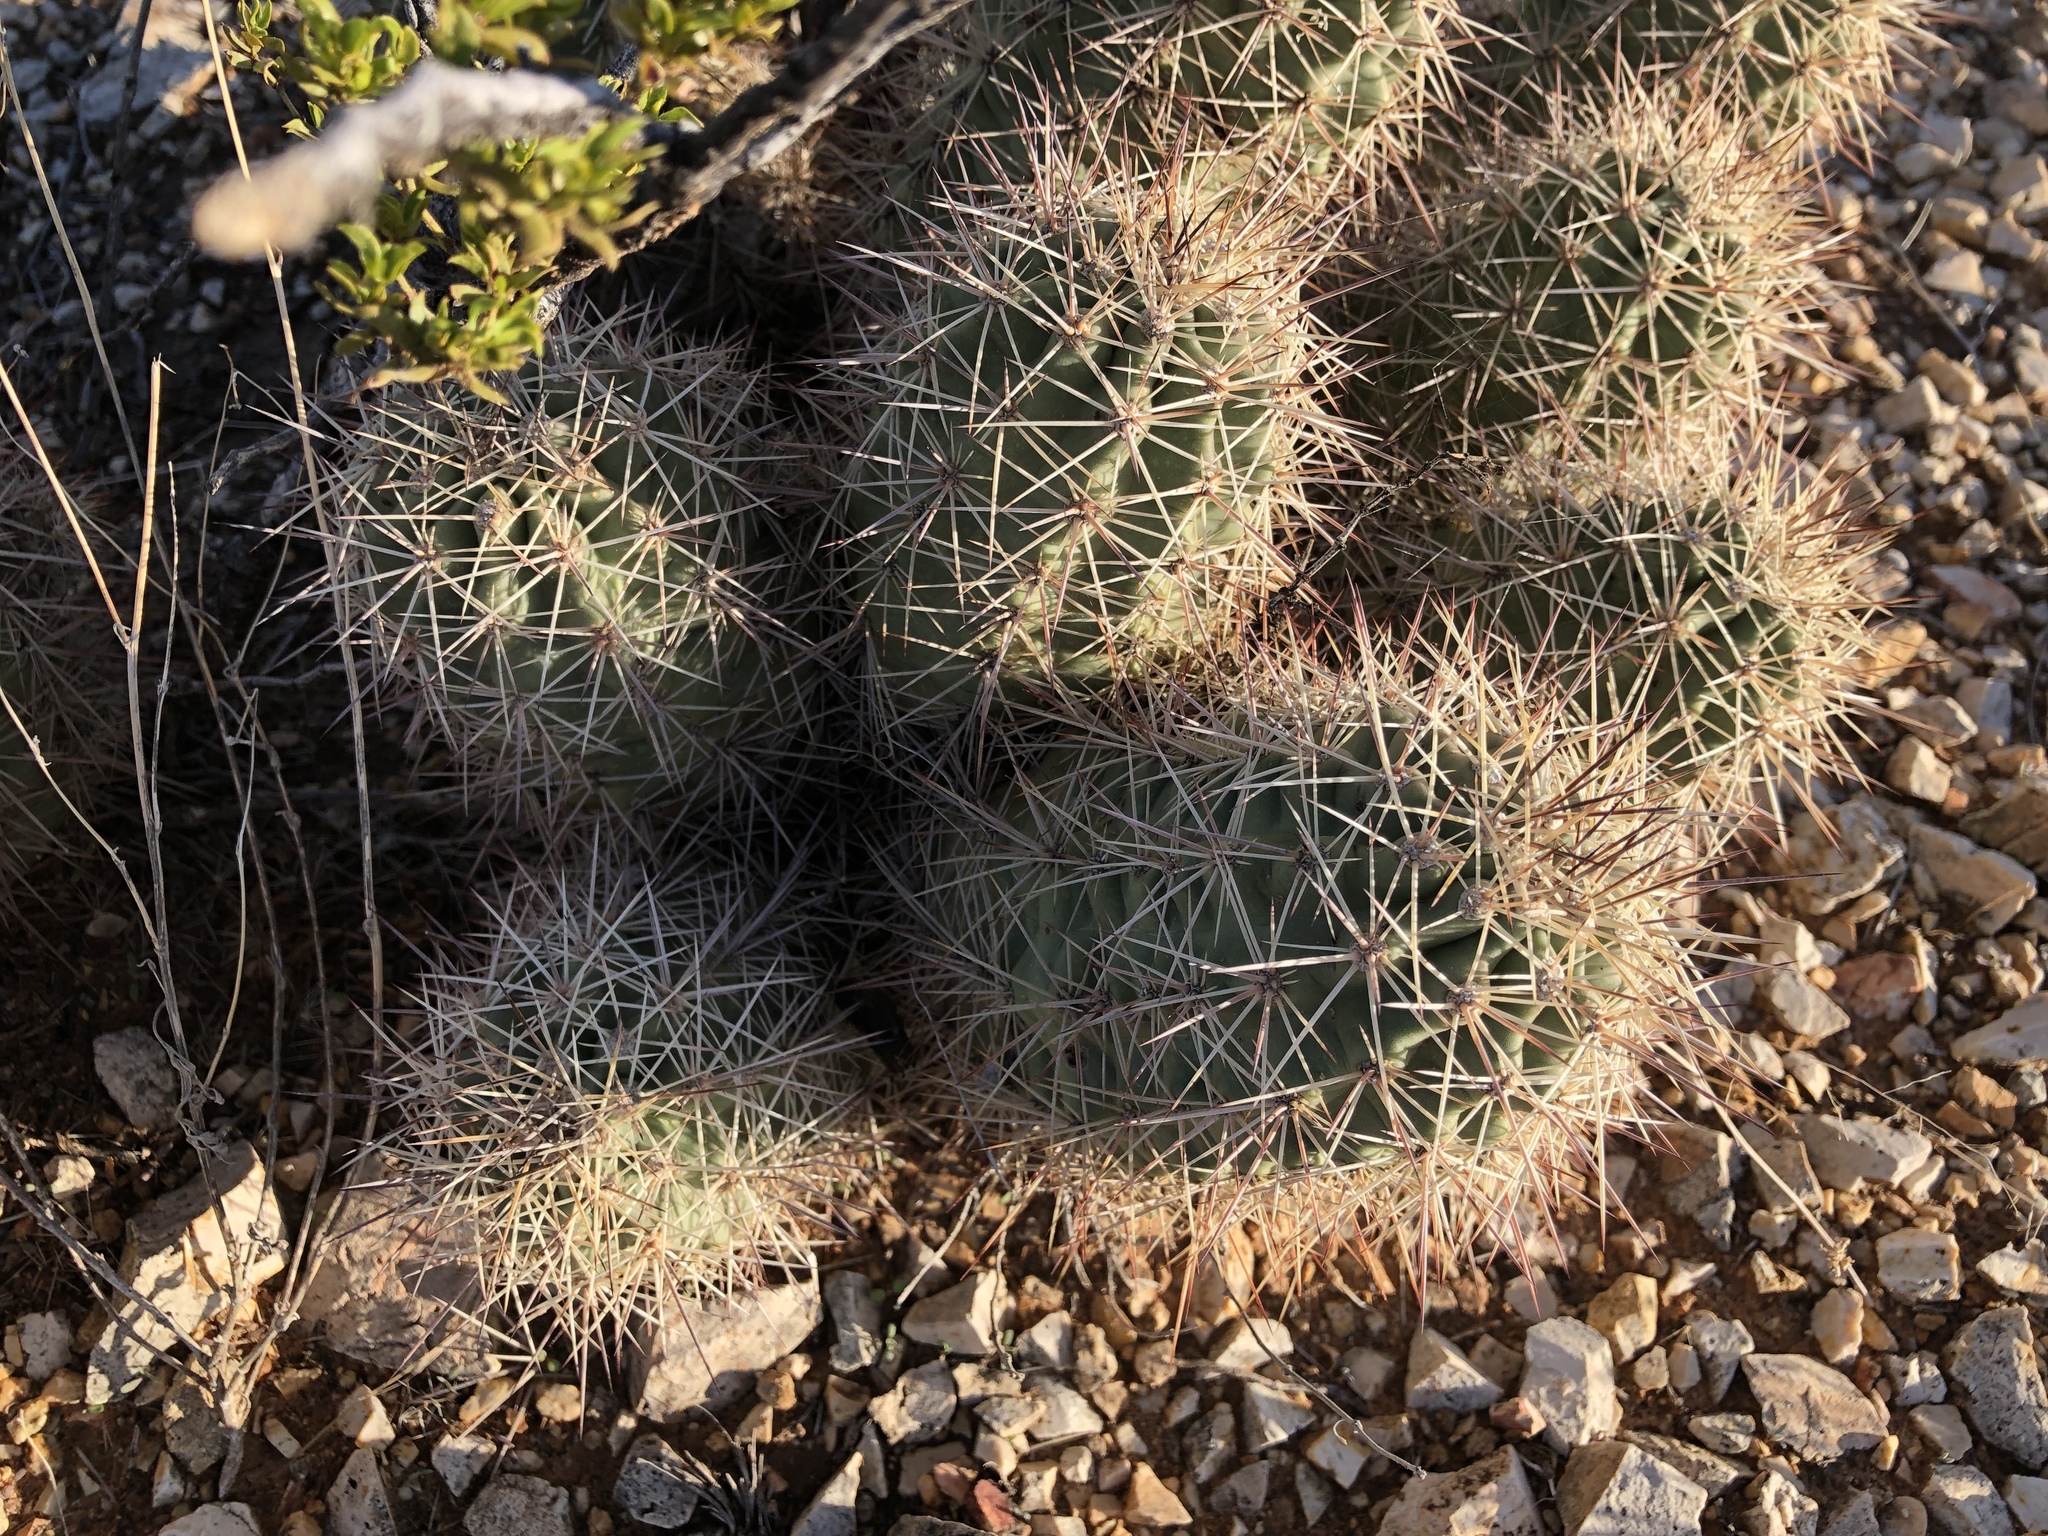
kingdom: Plantae
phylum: Tracheophyta
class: Magnoliopsida
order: Caryophyllales
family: Cactaceae
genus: Echinocereus
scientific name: Echinocereus coccineus
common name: Scarlet hedgehog cactus
